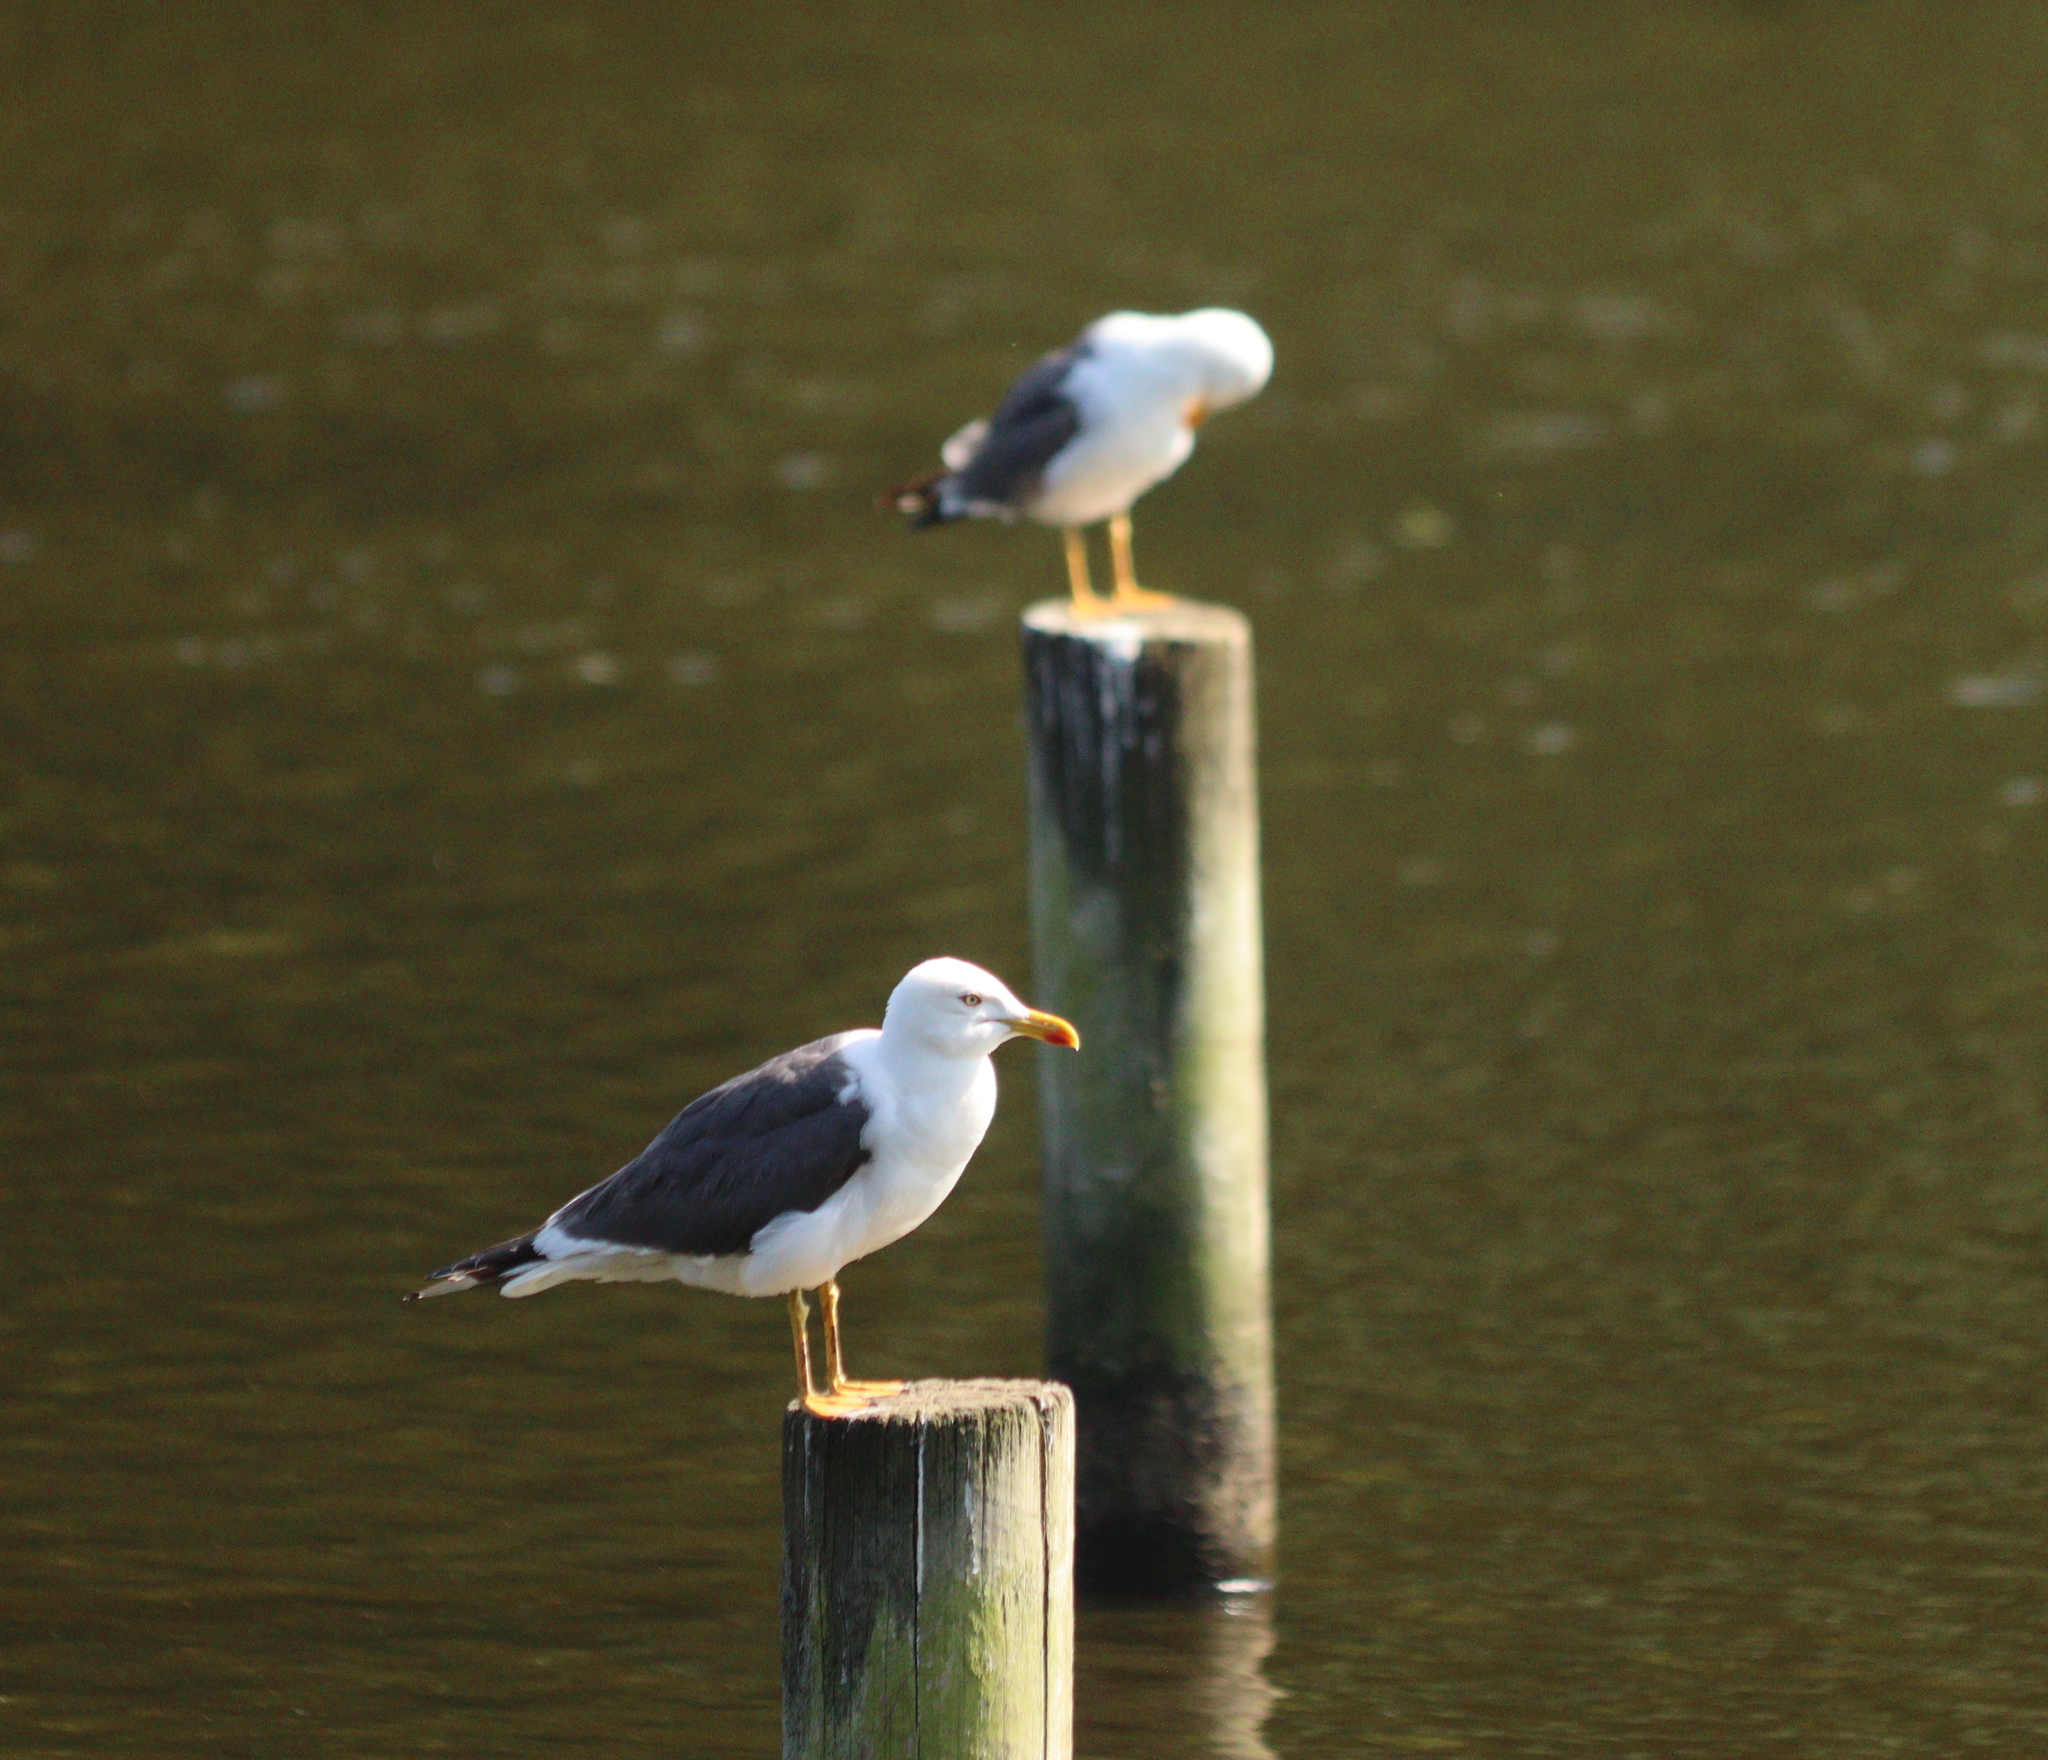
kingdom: Animalia
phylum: Chordata
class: Aves
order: Charadriiformes
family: Laridae
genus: Larus
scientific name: Larus fuscus
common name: Lesser black-backed gull
